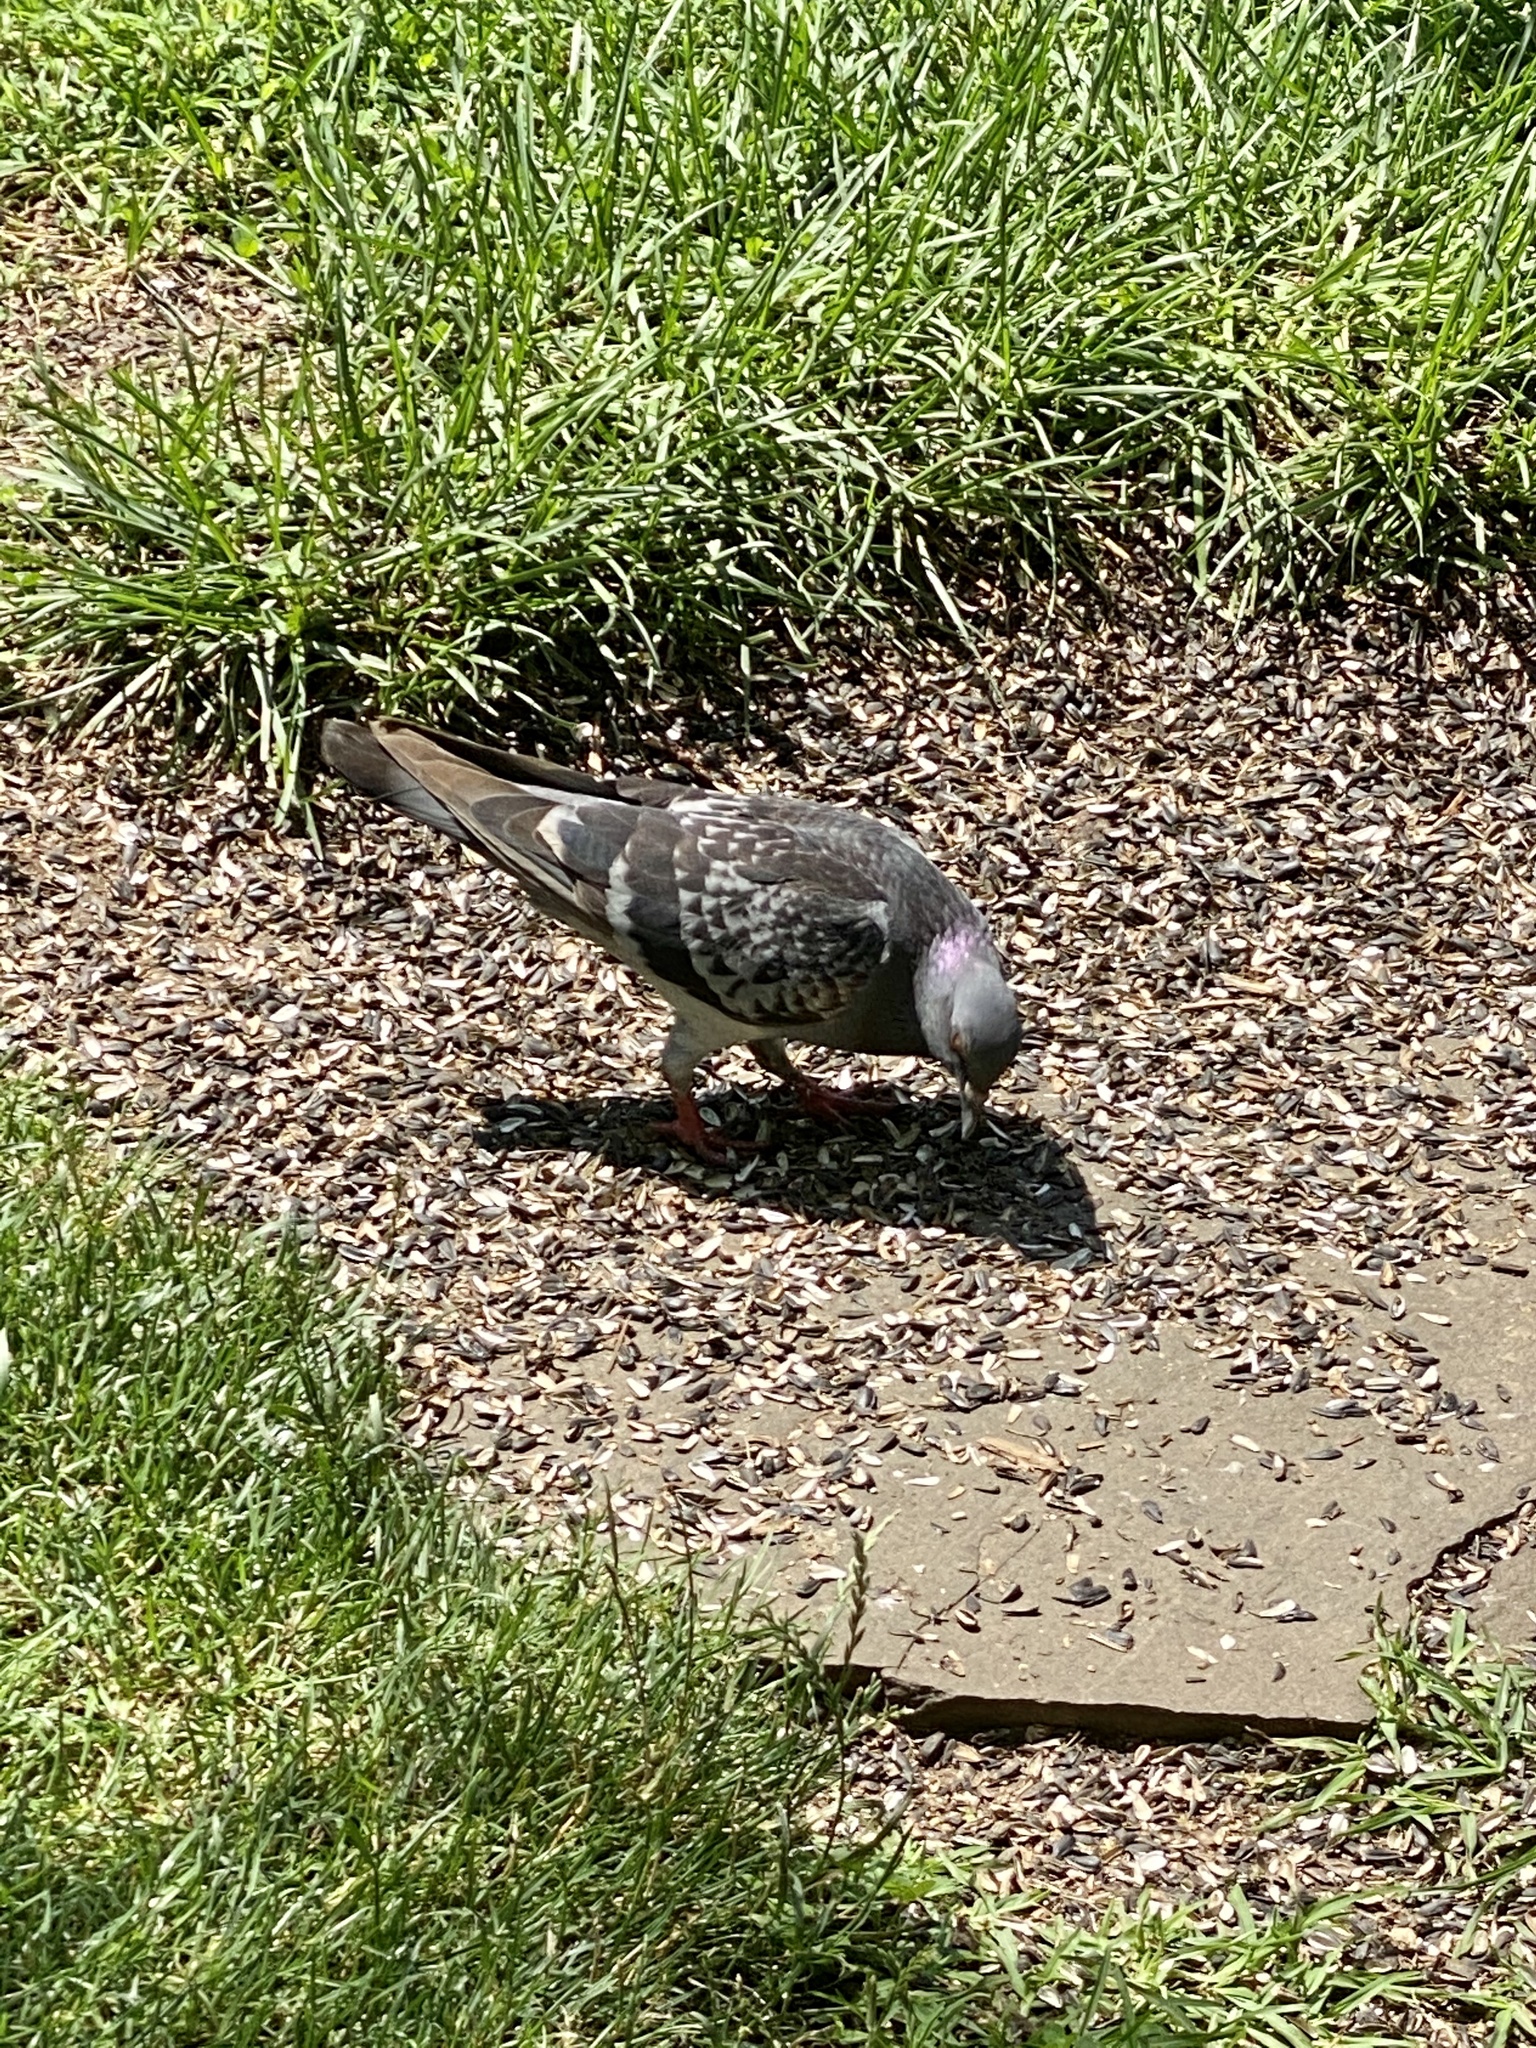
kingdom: Animalia
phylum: Chordata
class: Aves
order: Columbiformes
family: Columbidae
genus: Columba
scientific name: Columba livia
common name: Rock pigeon
